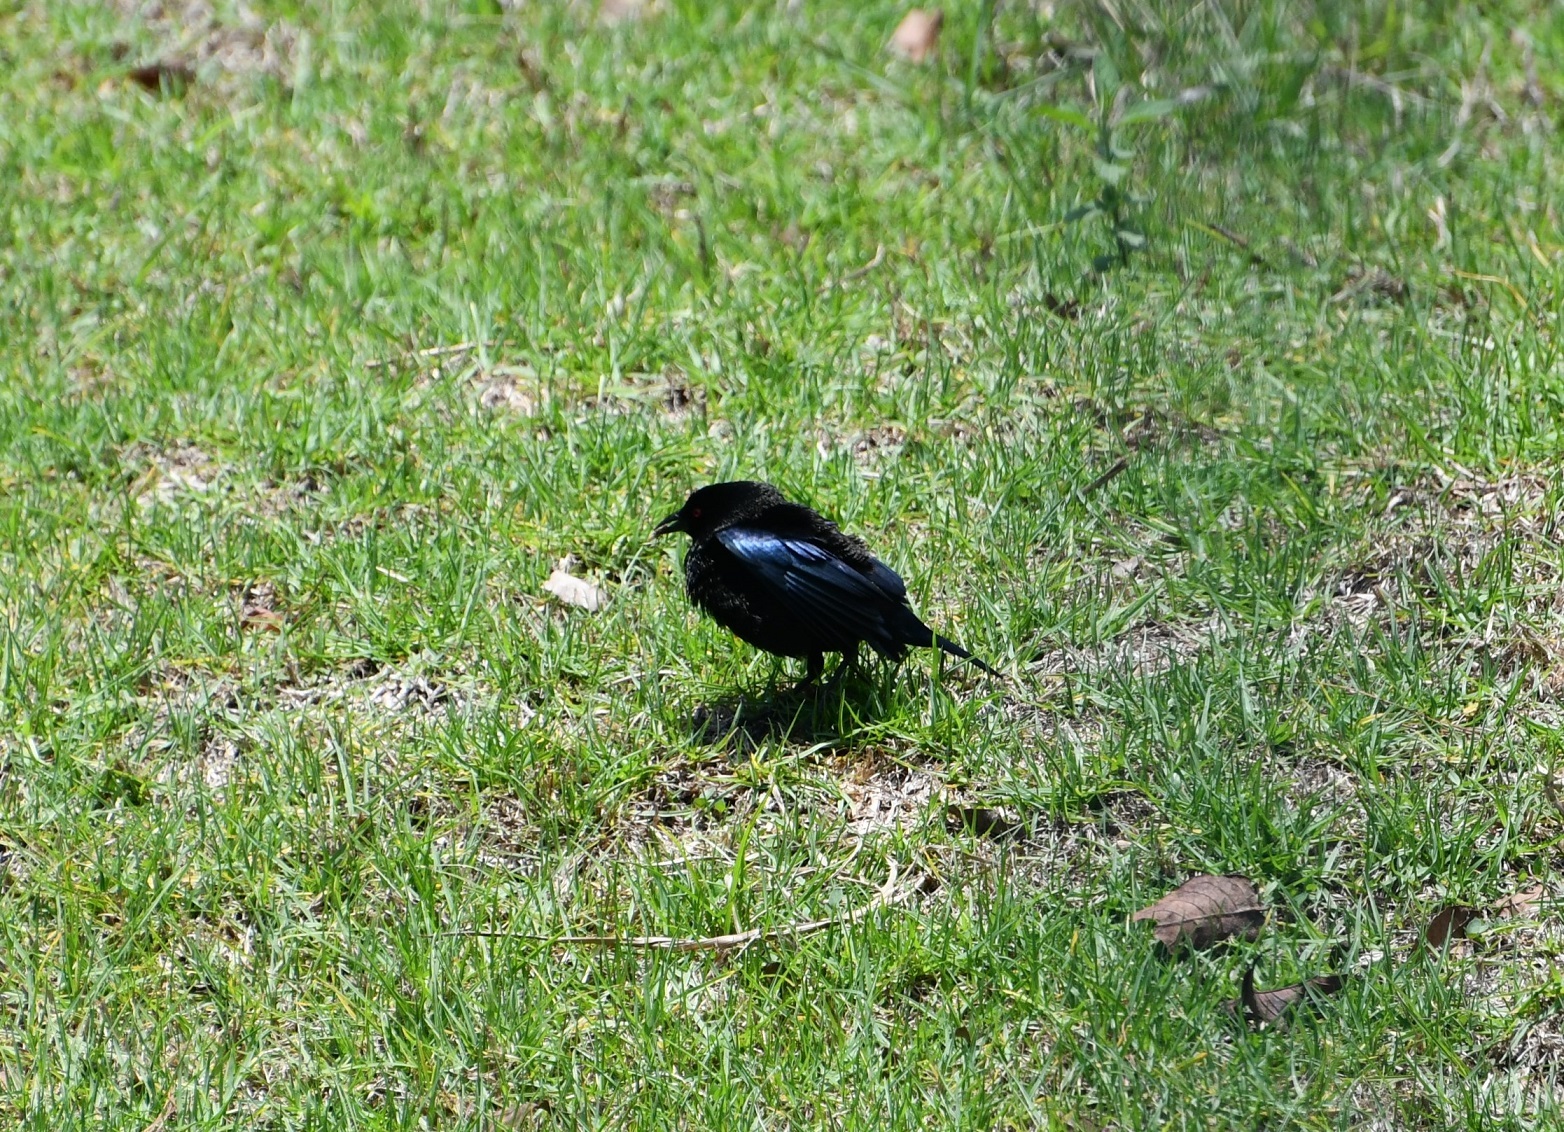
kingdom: Animalia
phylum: Chordata
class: Aves
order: Passeriformes
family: Icteridae
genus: Molothrus
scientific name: Molothrus aeneus
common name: Bronzed cowbird
